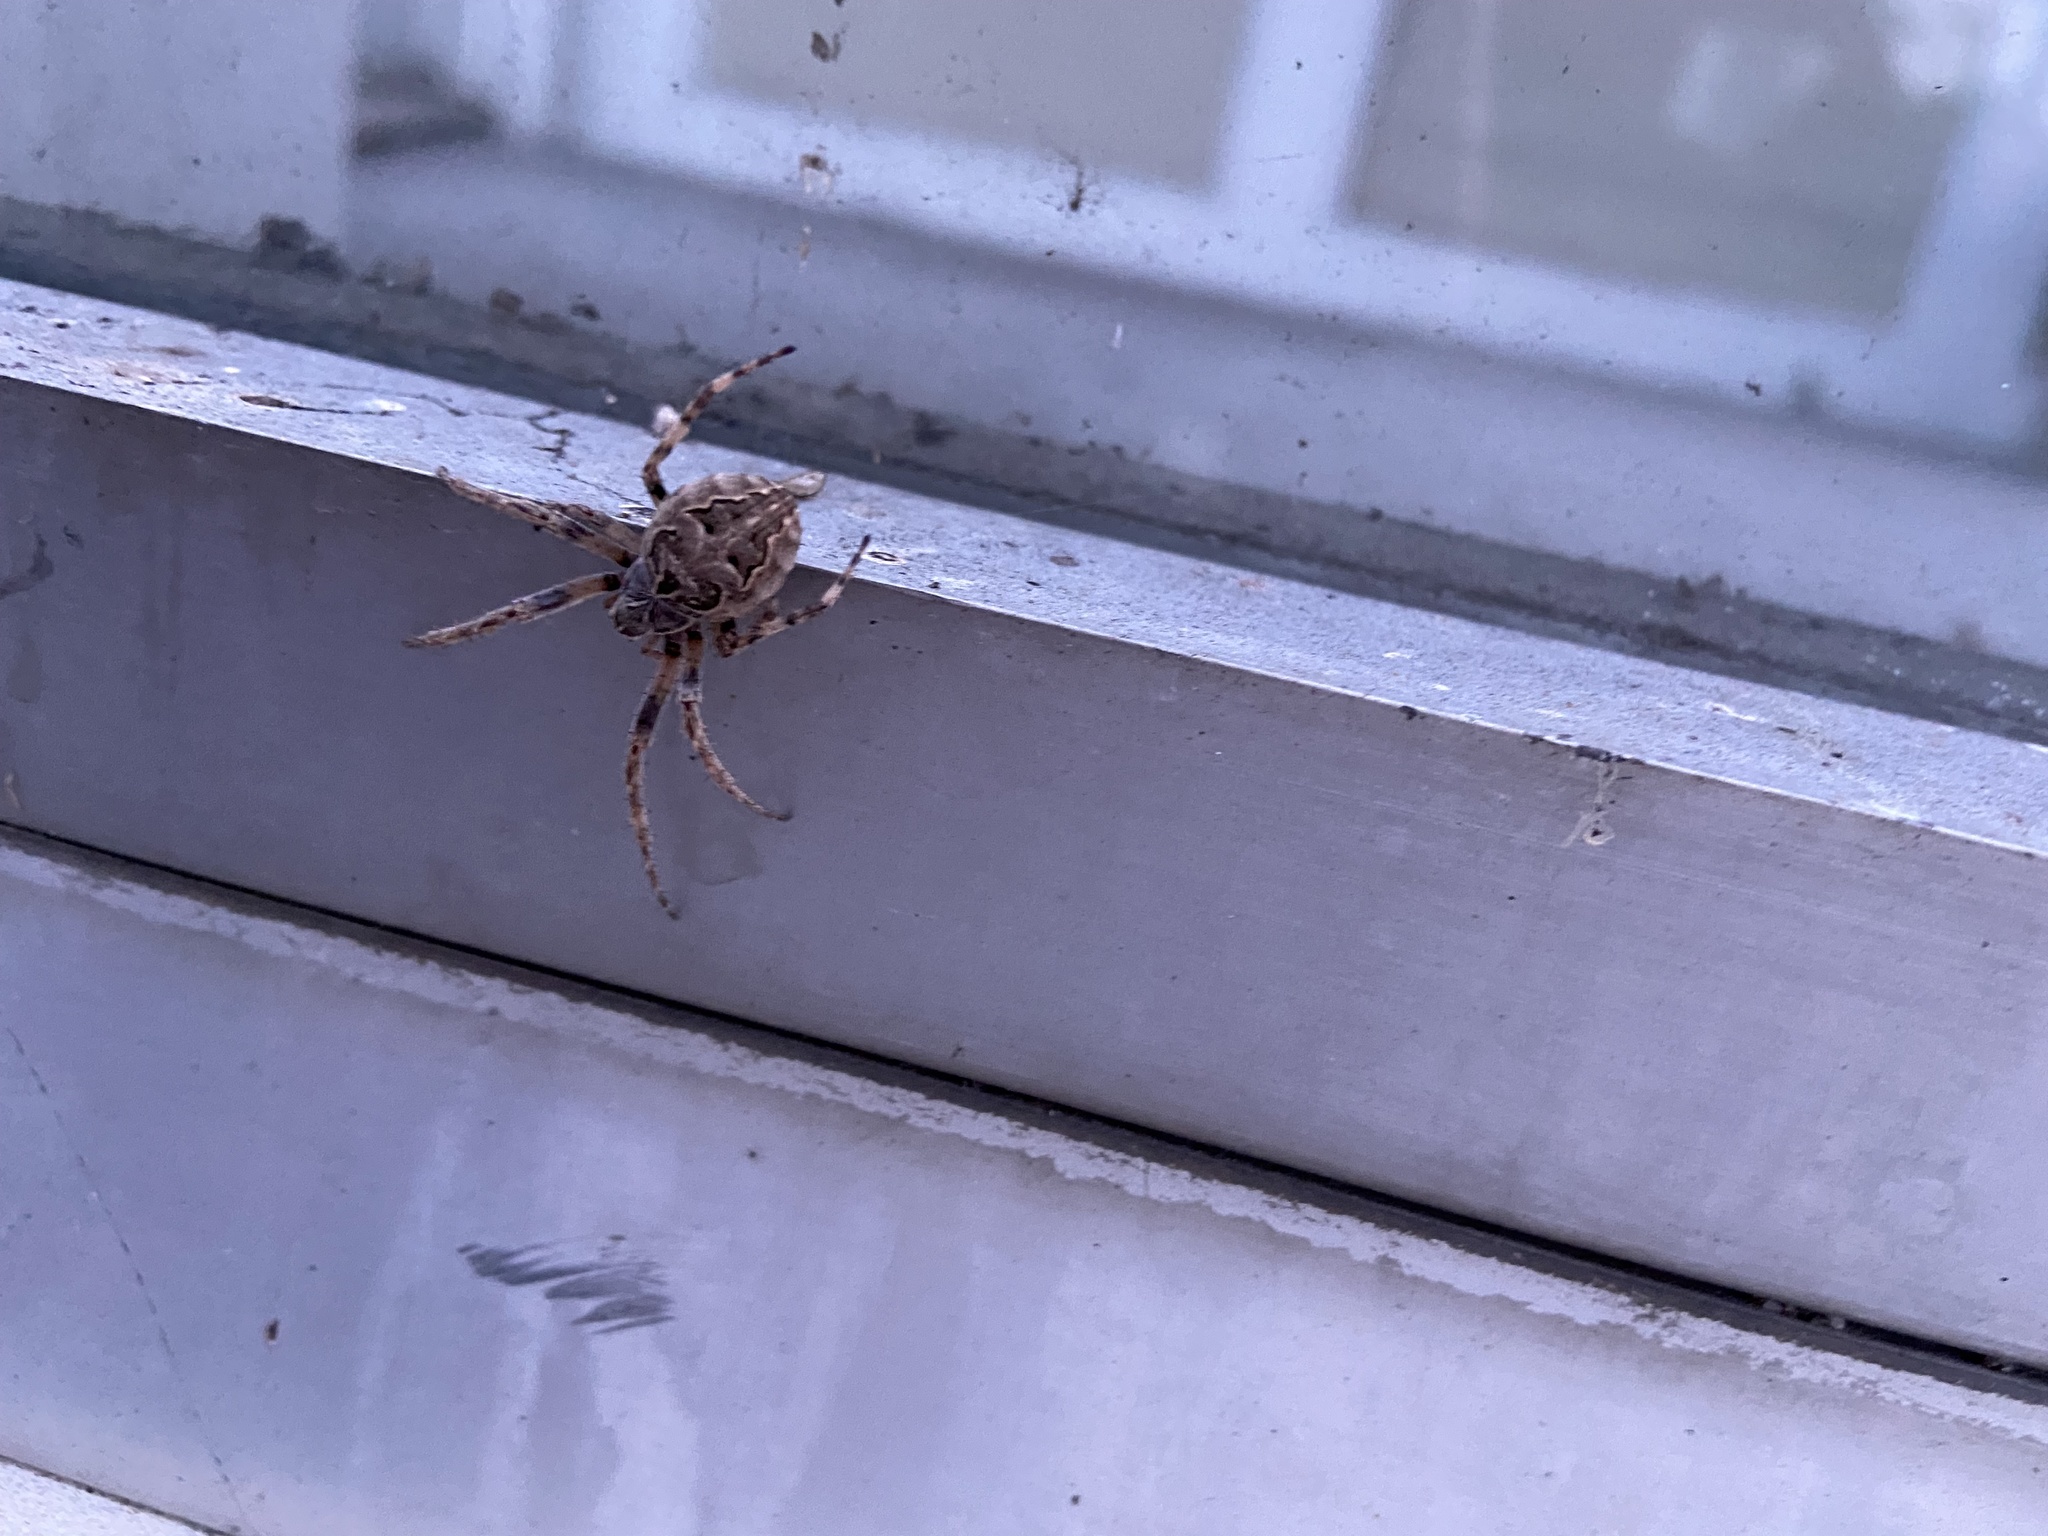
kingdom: Animalia
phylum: Arthropoda
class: Arachnida
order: Araneae
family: Araneidae
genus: Larinioides
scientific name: Larinioides sclopetarius
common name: Bridge orbweaver
